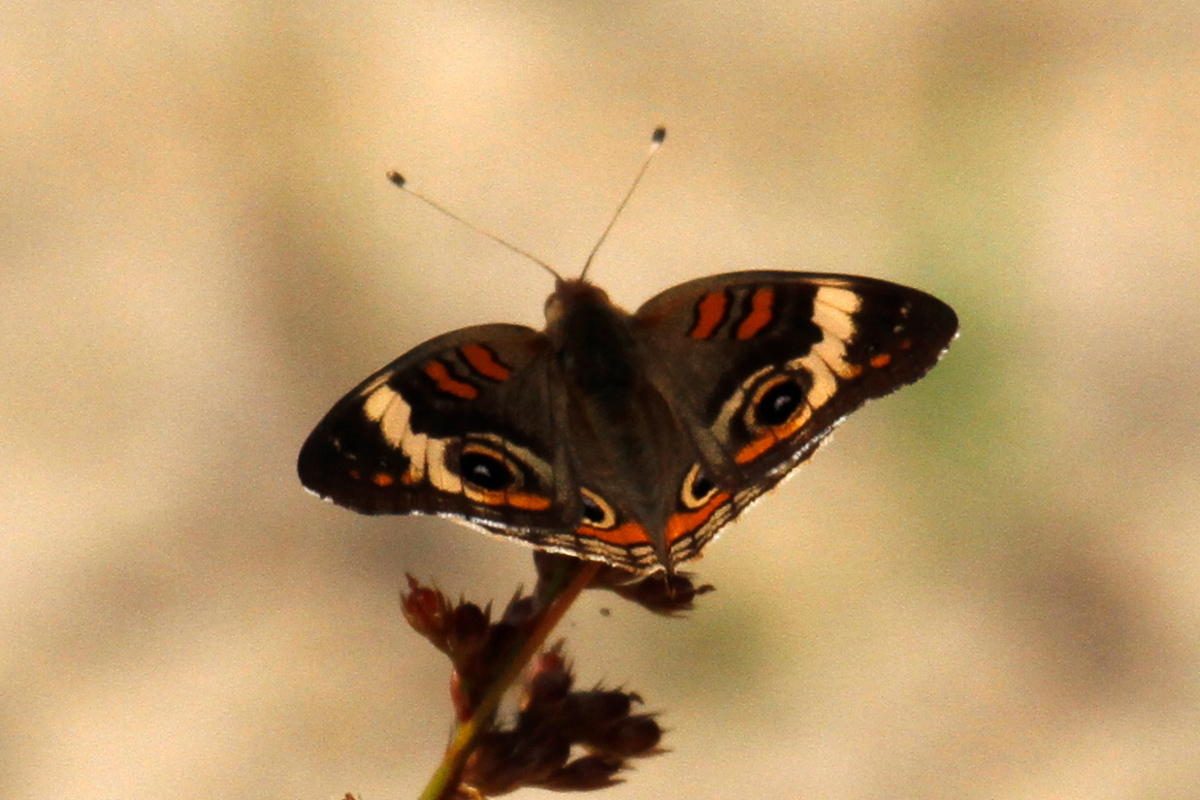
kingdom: Animalia
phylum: Arthropoda
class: Insecta
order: Lepidoptera
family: Nymphalidae
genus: Junonia
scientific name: Junonia coenia
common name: Common buckeye
